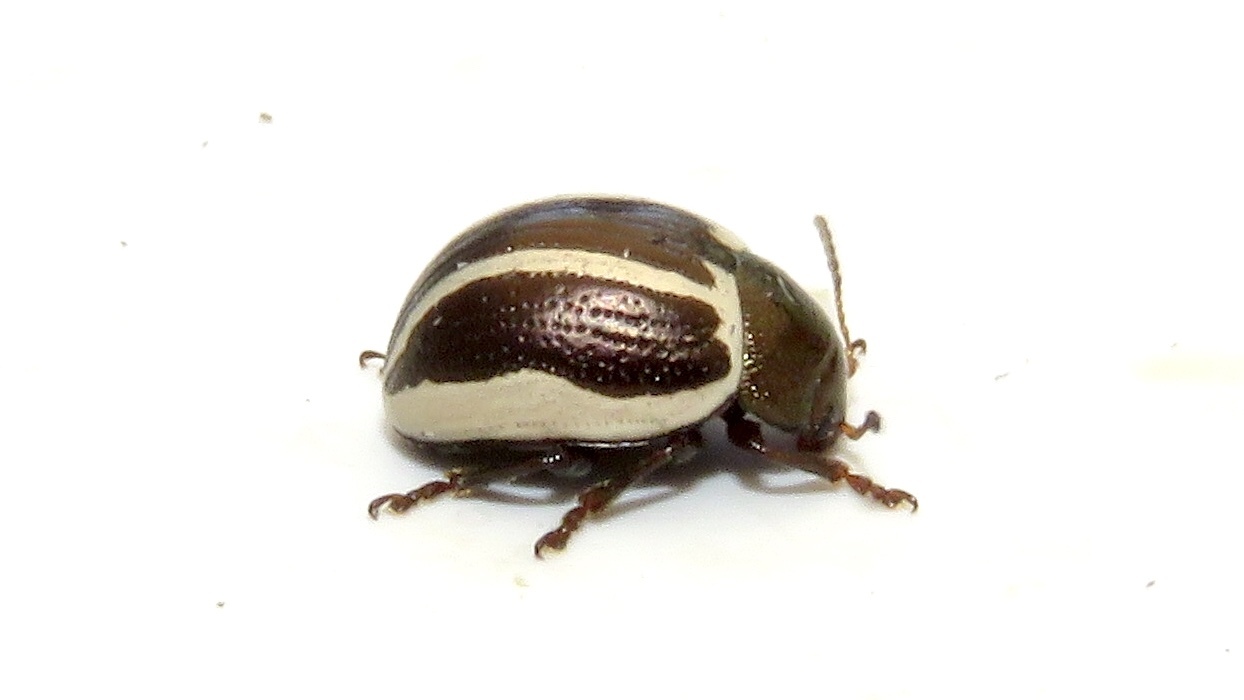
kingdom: Animalia
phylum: Arthropoda
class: Insecta
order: Coleoptera
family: Chrysomelidae
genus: Calligrapha
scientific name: Calligrapha bidenticola
